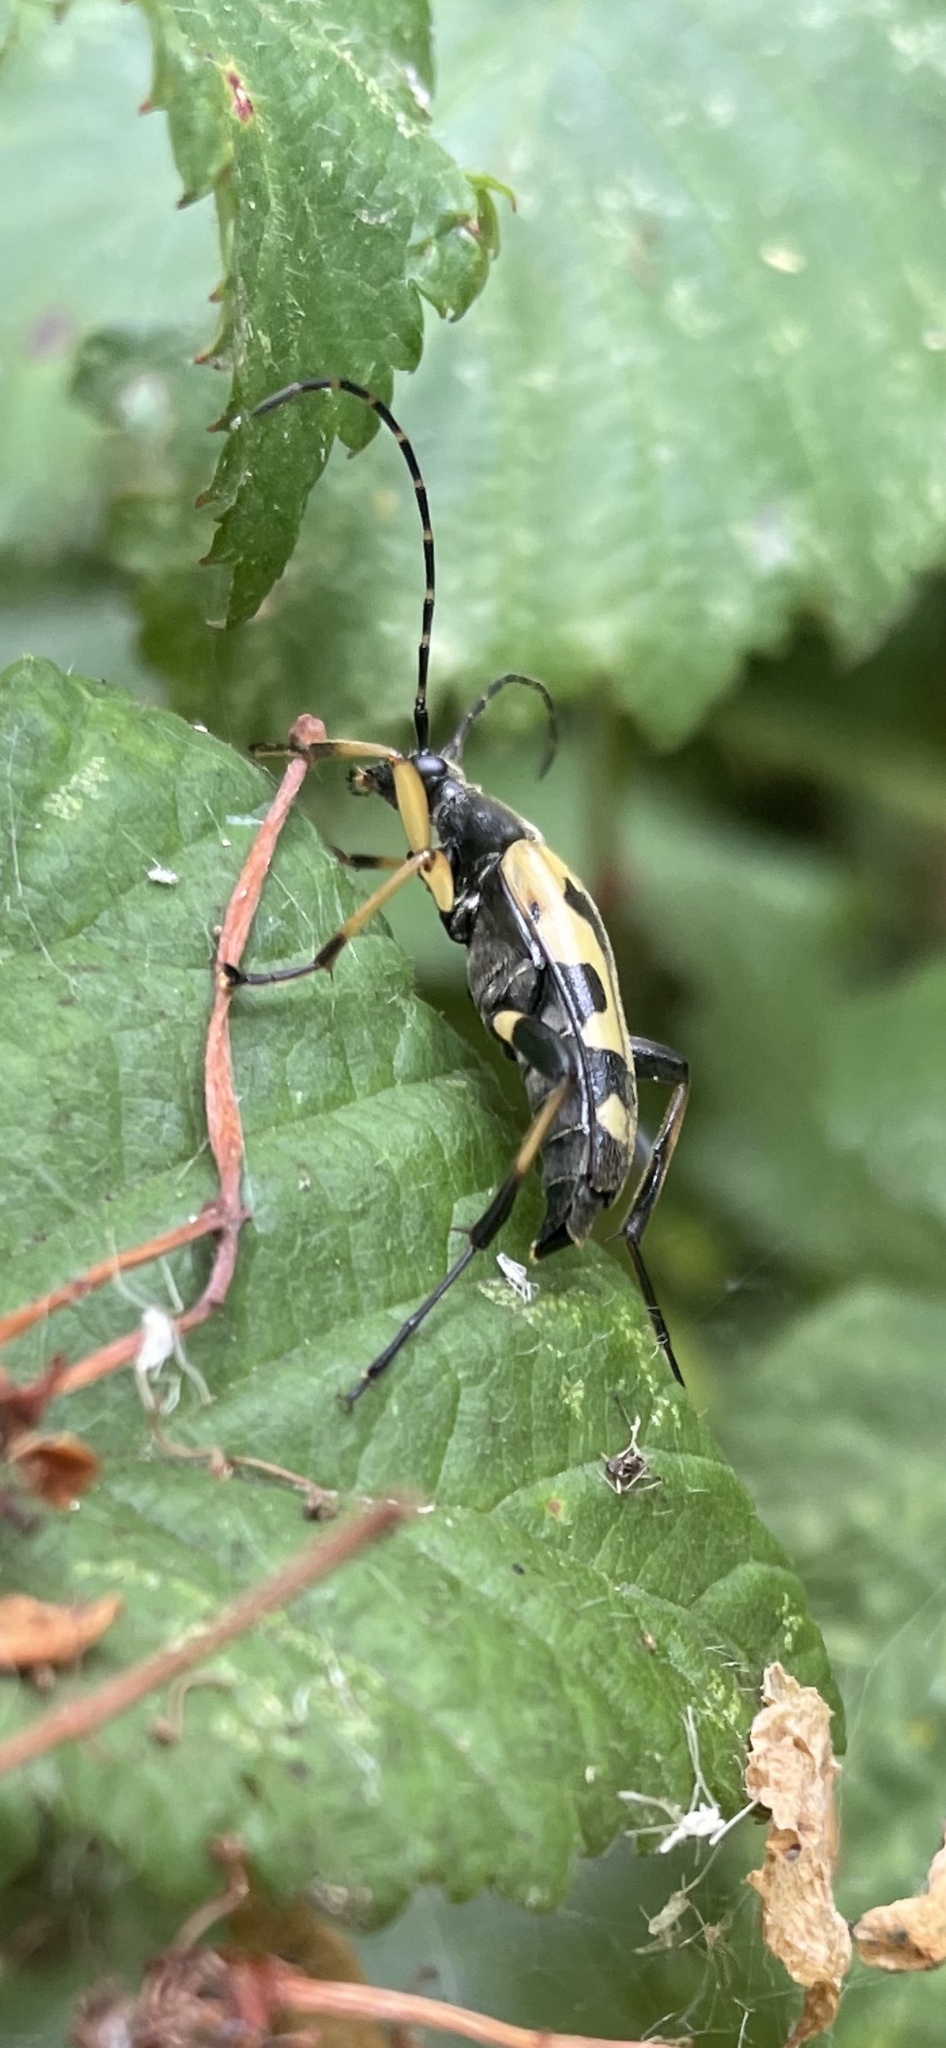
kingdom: Animalia
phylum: Arthropoda
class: Insecta
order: Coleoptera
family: Cerambycidae
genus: Rutpela
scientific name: Rutpela maculata
